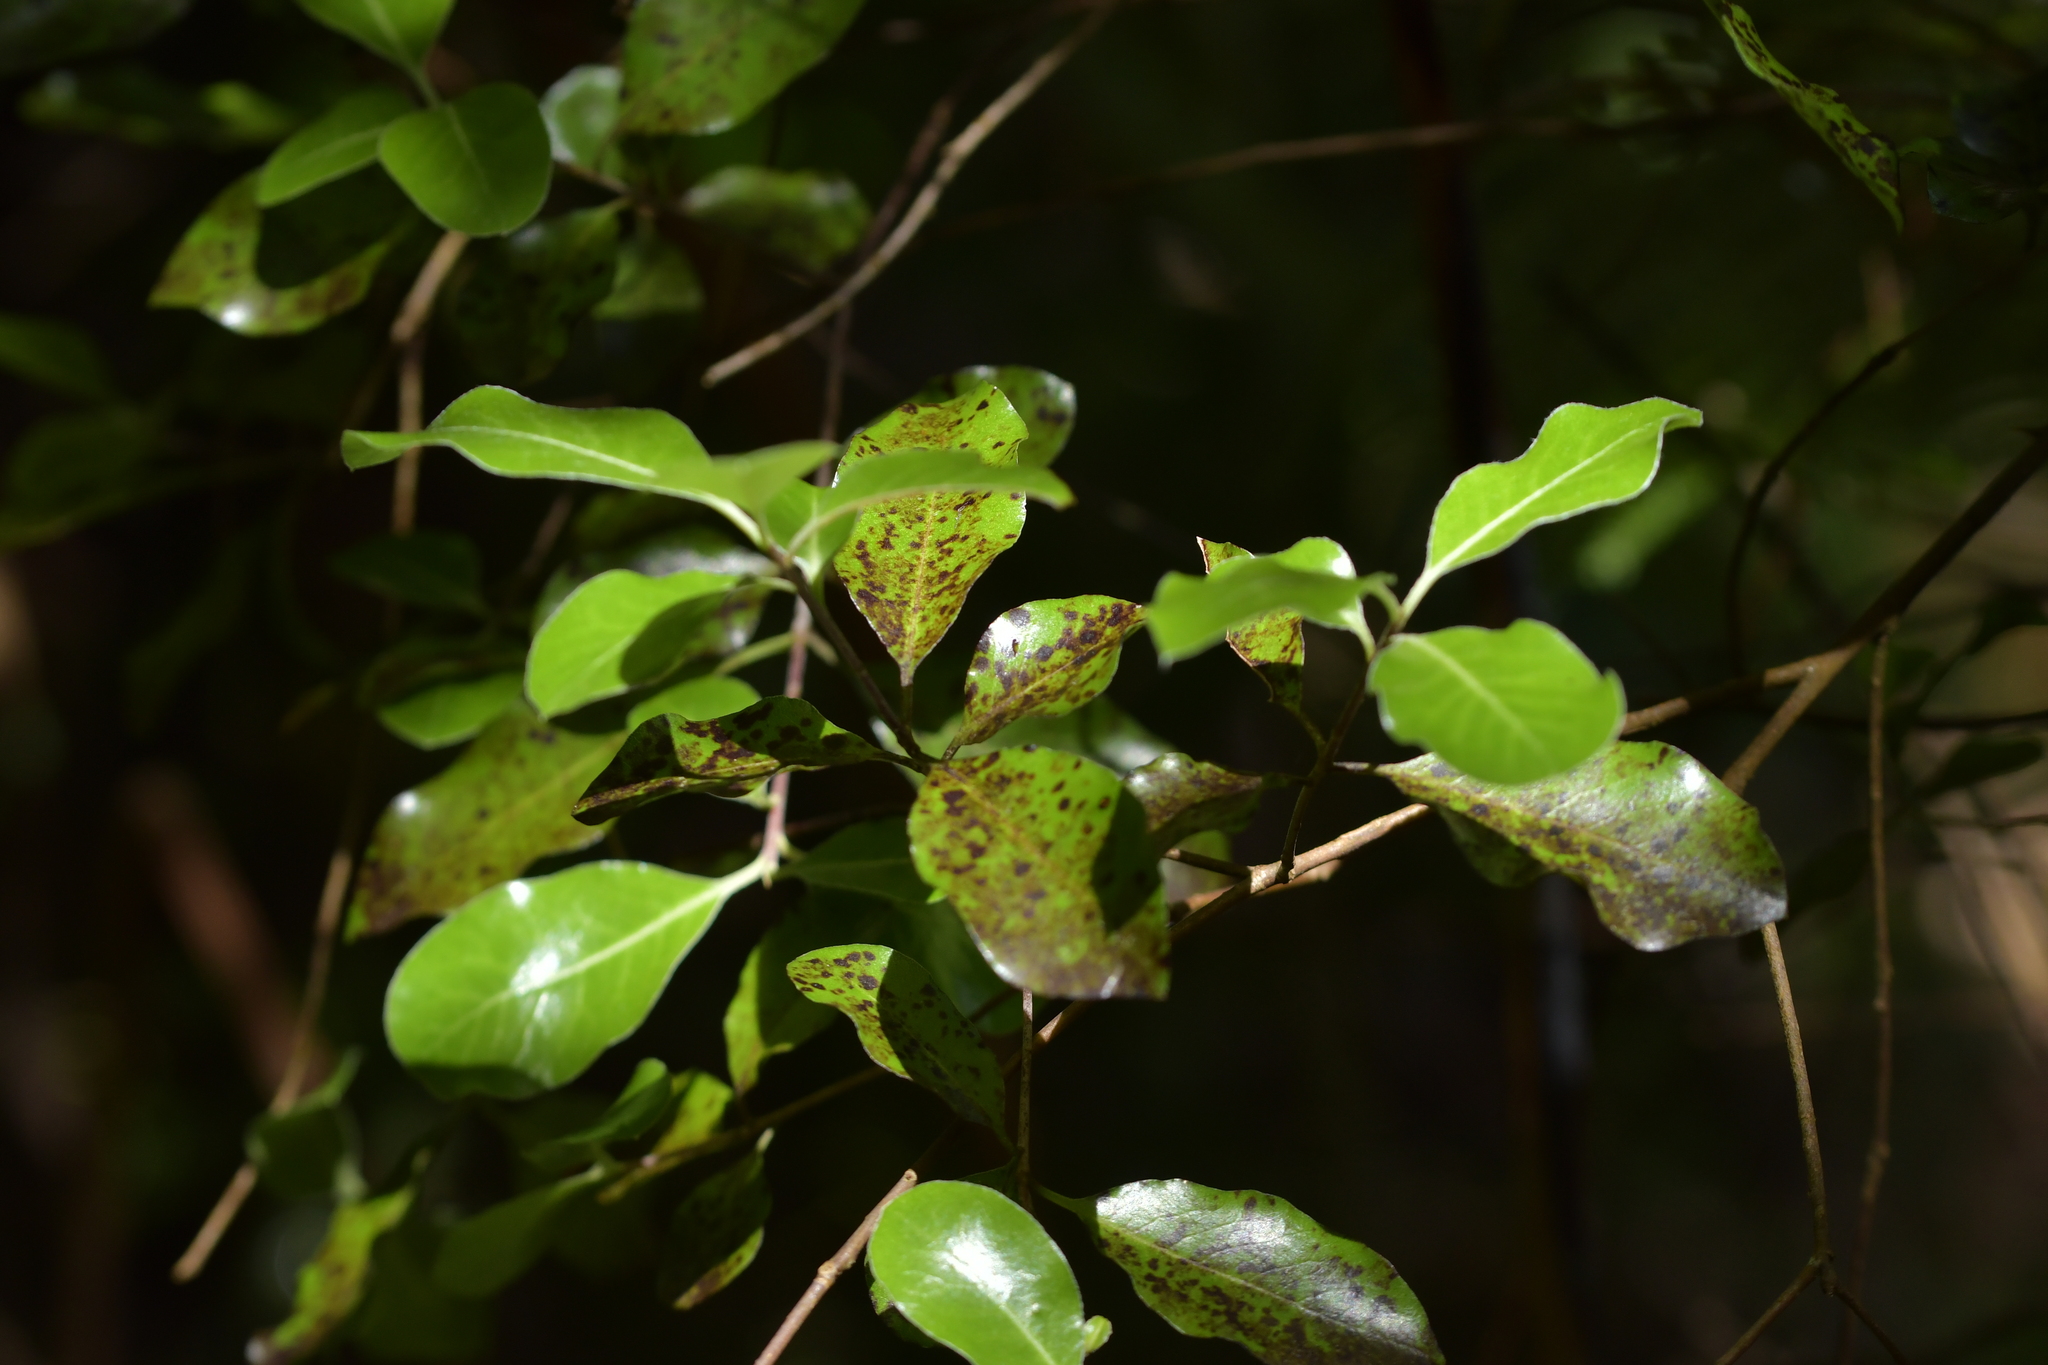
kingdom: Plantae
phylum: Tracheophyta
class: Magnoliopsida
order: Ericales
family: Primulaceae
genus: Myrsine
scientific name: Myrsine australis
